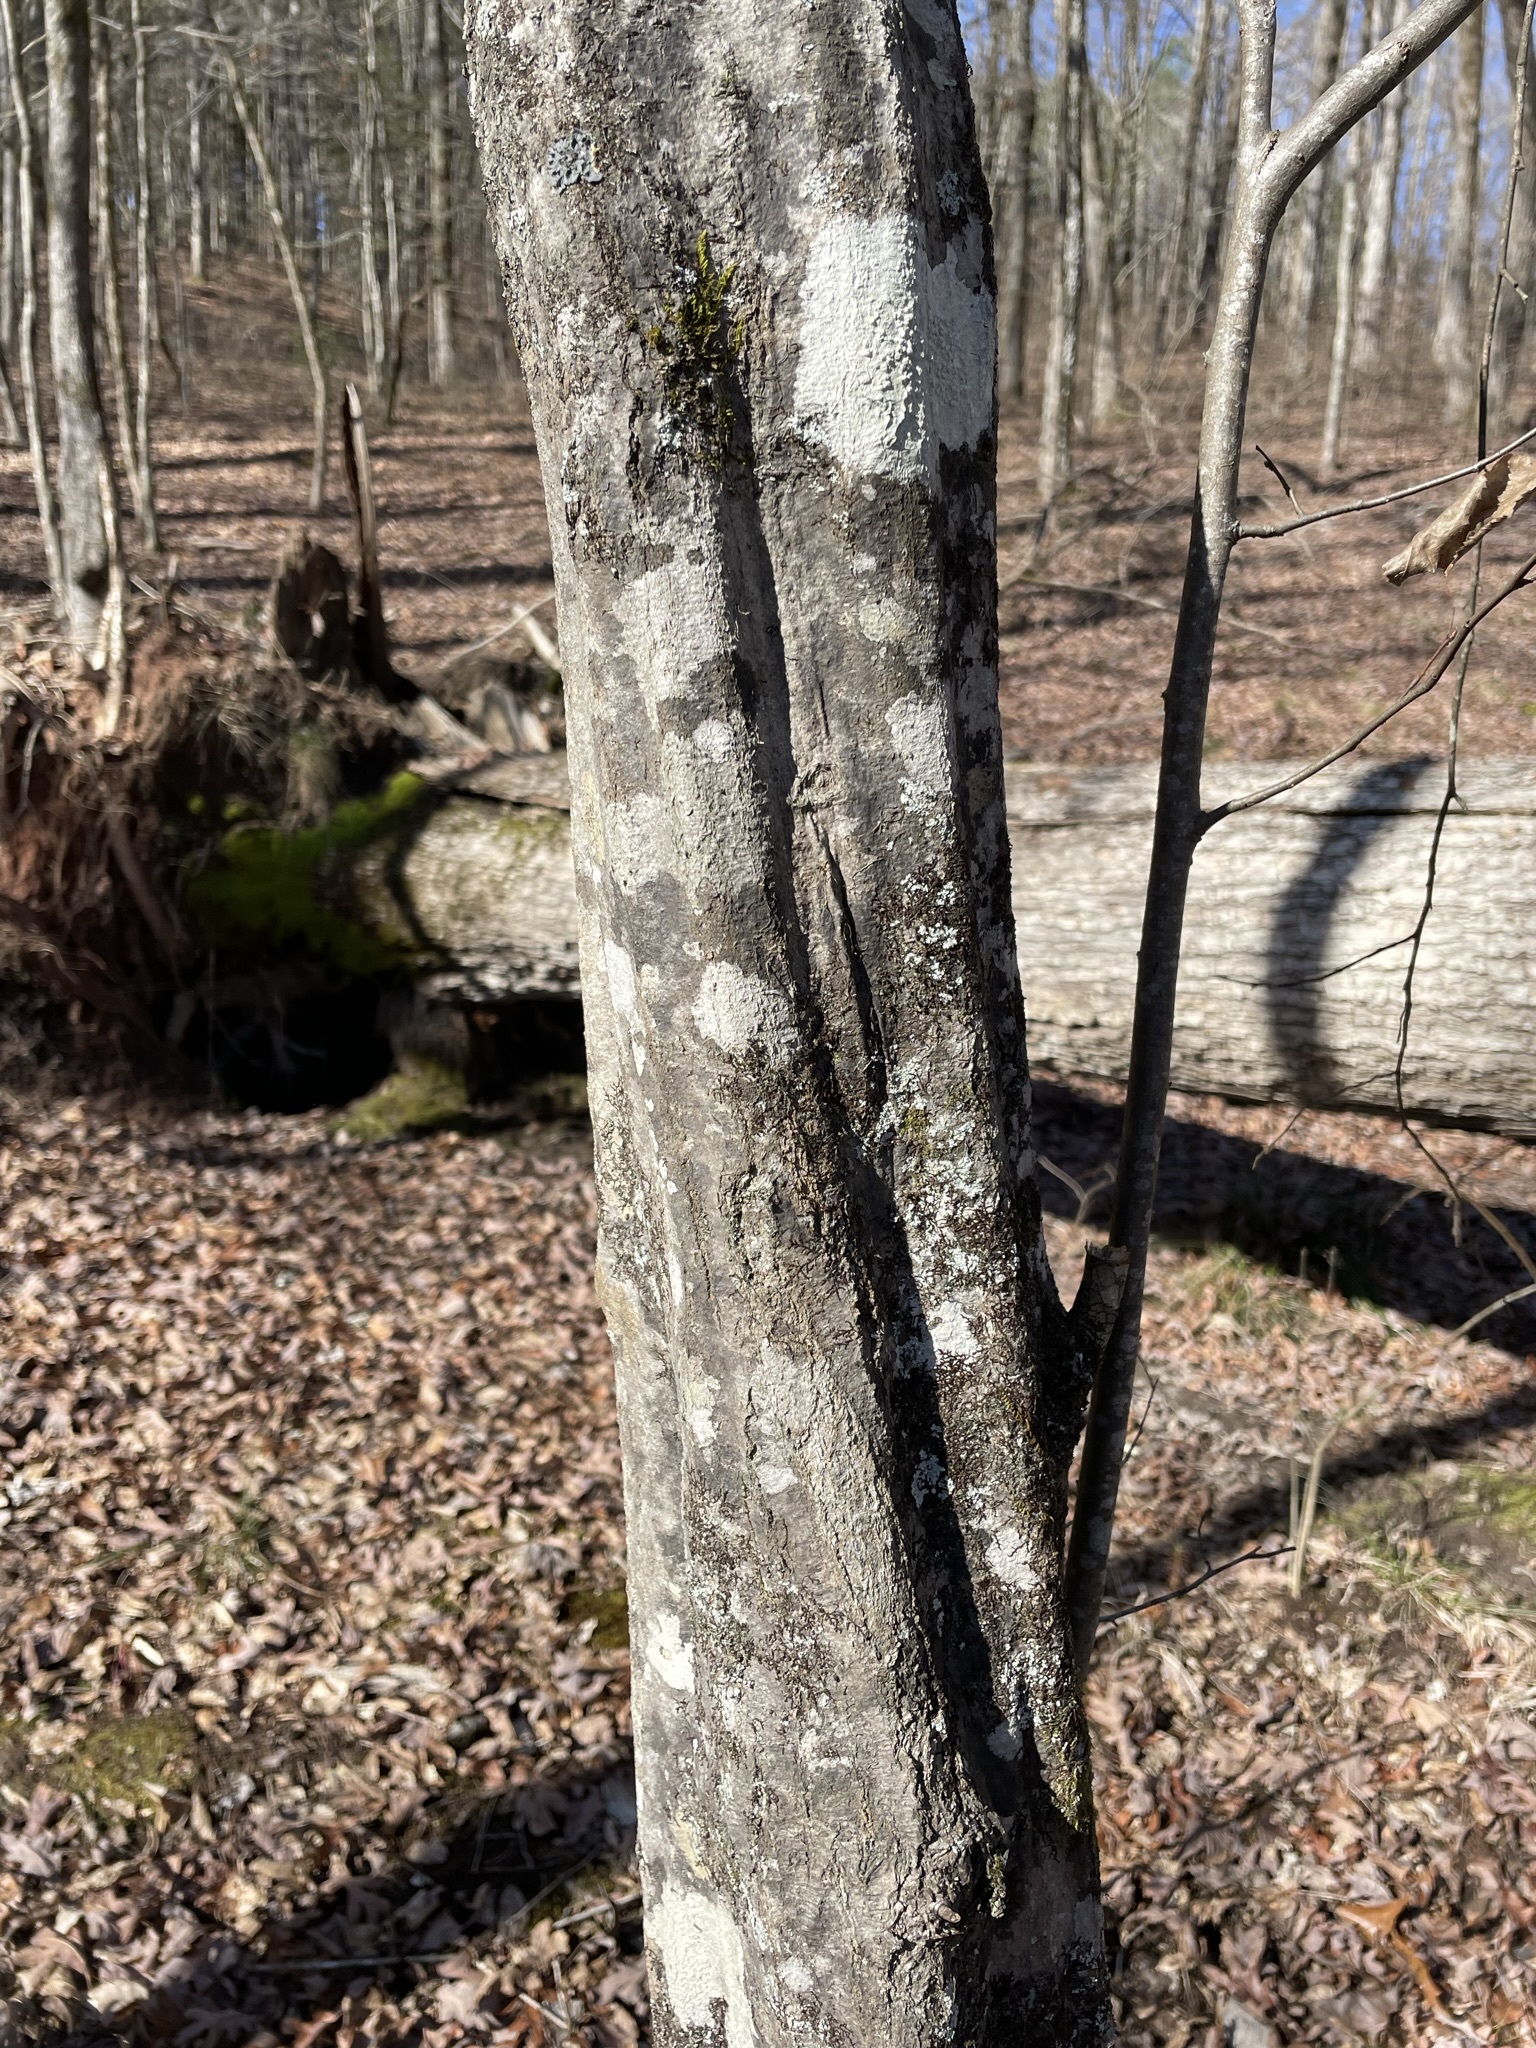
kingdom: Plantae
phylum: Tracheophyta
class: Magnoliopsida
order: Fagales
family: Betulaceae
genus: Carpinus
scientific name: Carpinus caroliniana
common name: American hornbeam
